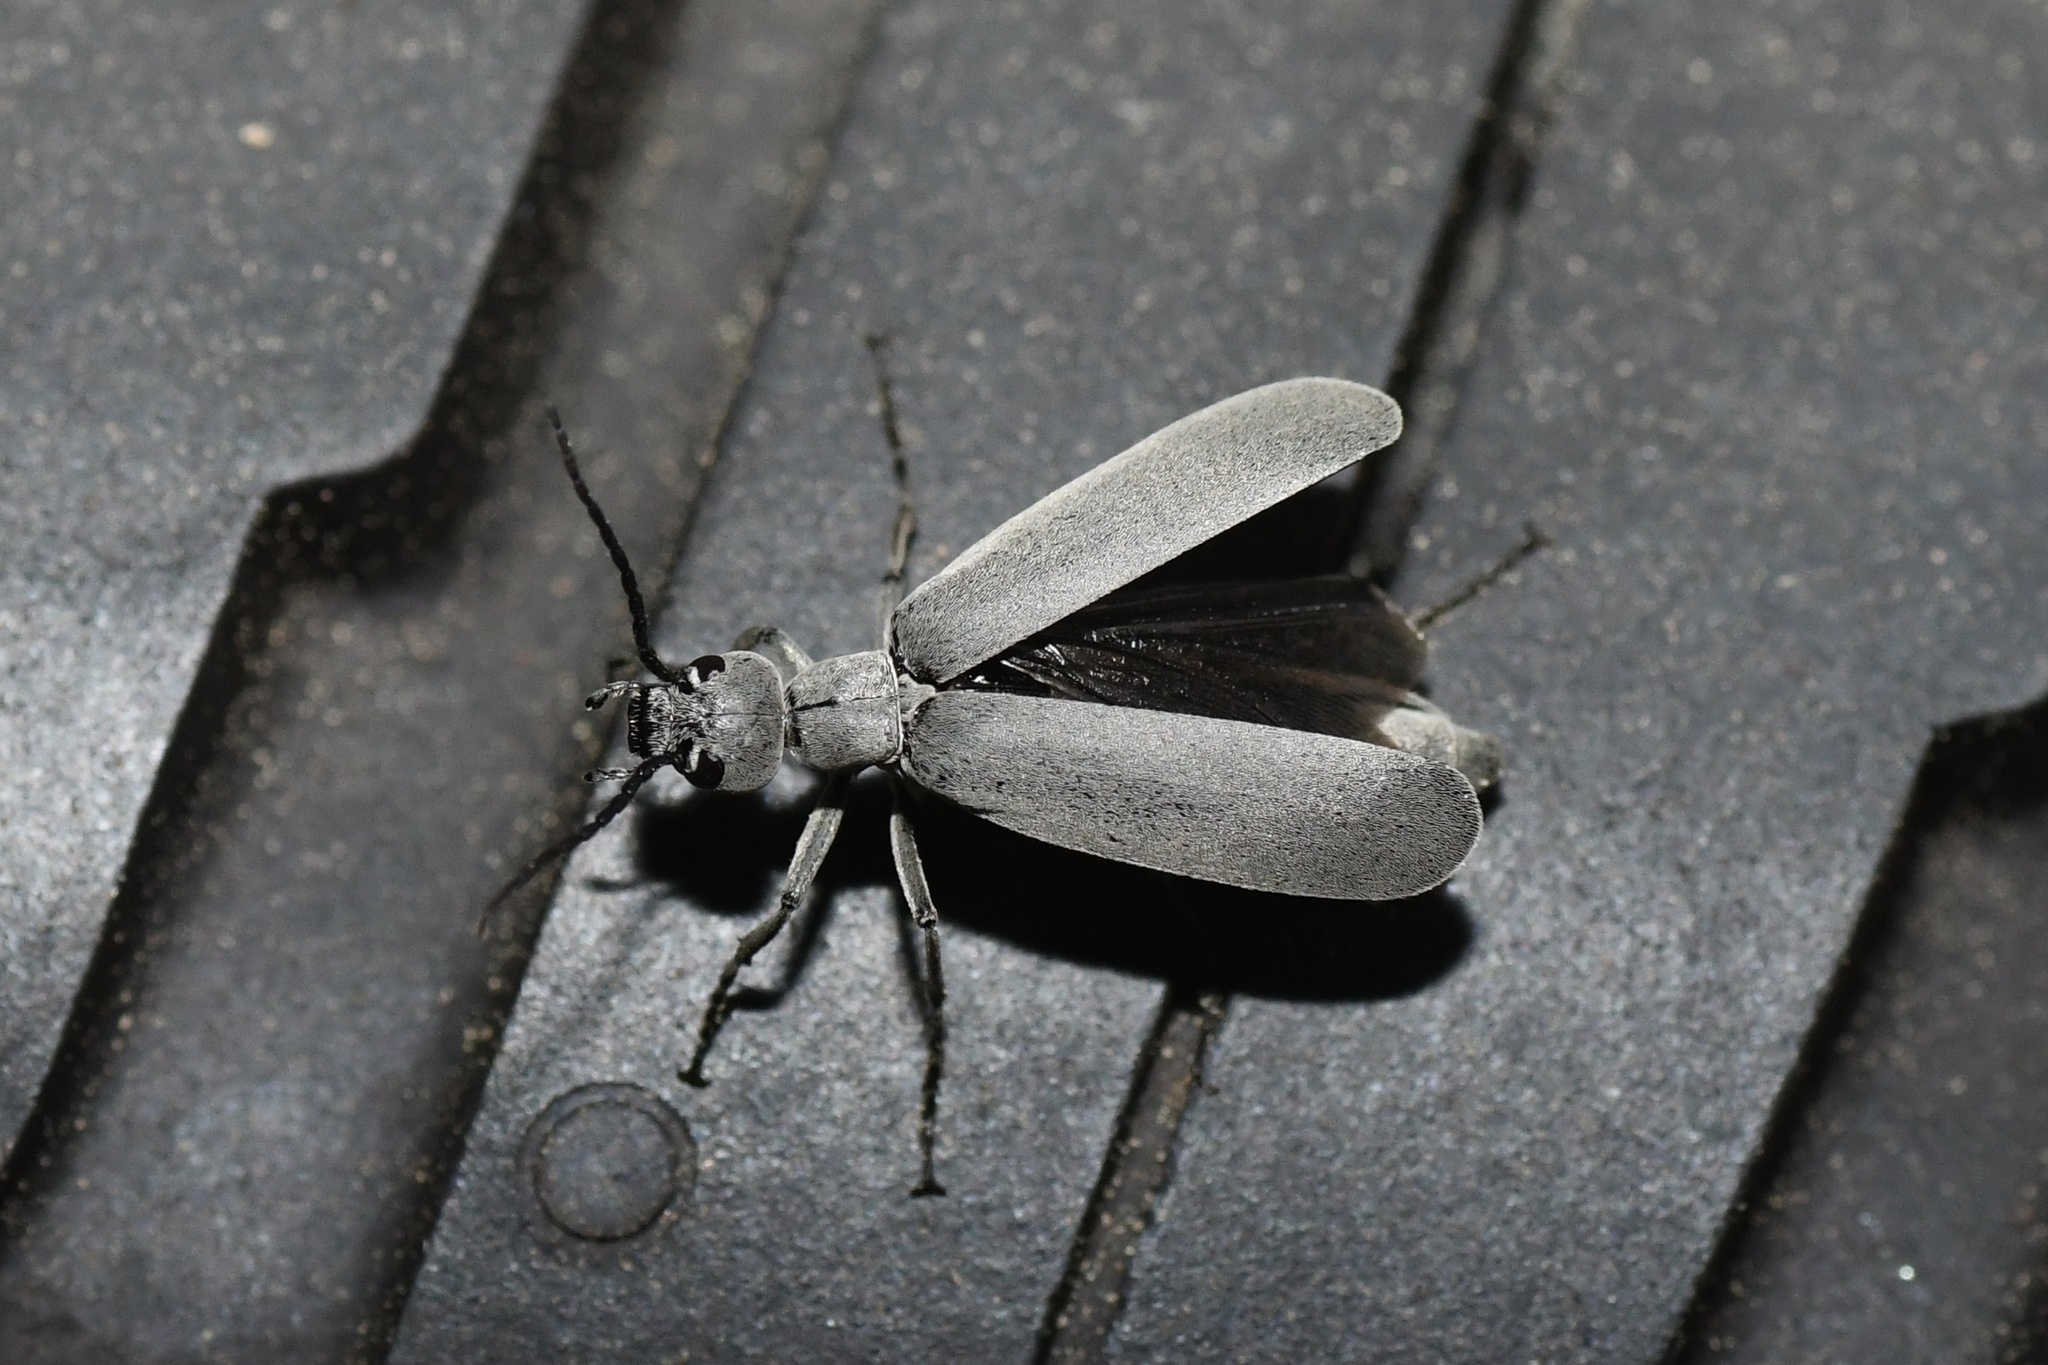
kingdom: Animalia
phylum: Arthropoda
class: Insecta
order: Coleoptera
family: Meloidae
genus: Epicauta
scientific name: Epicauta fabricii
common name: Ashgray blister beetle
